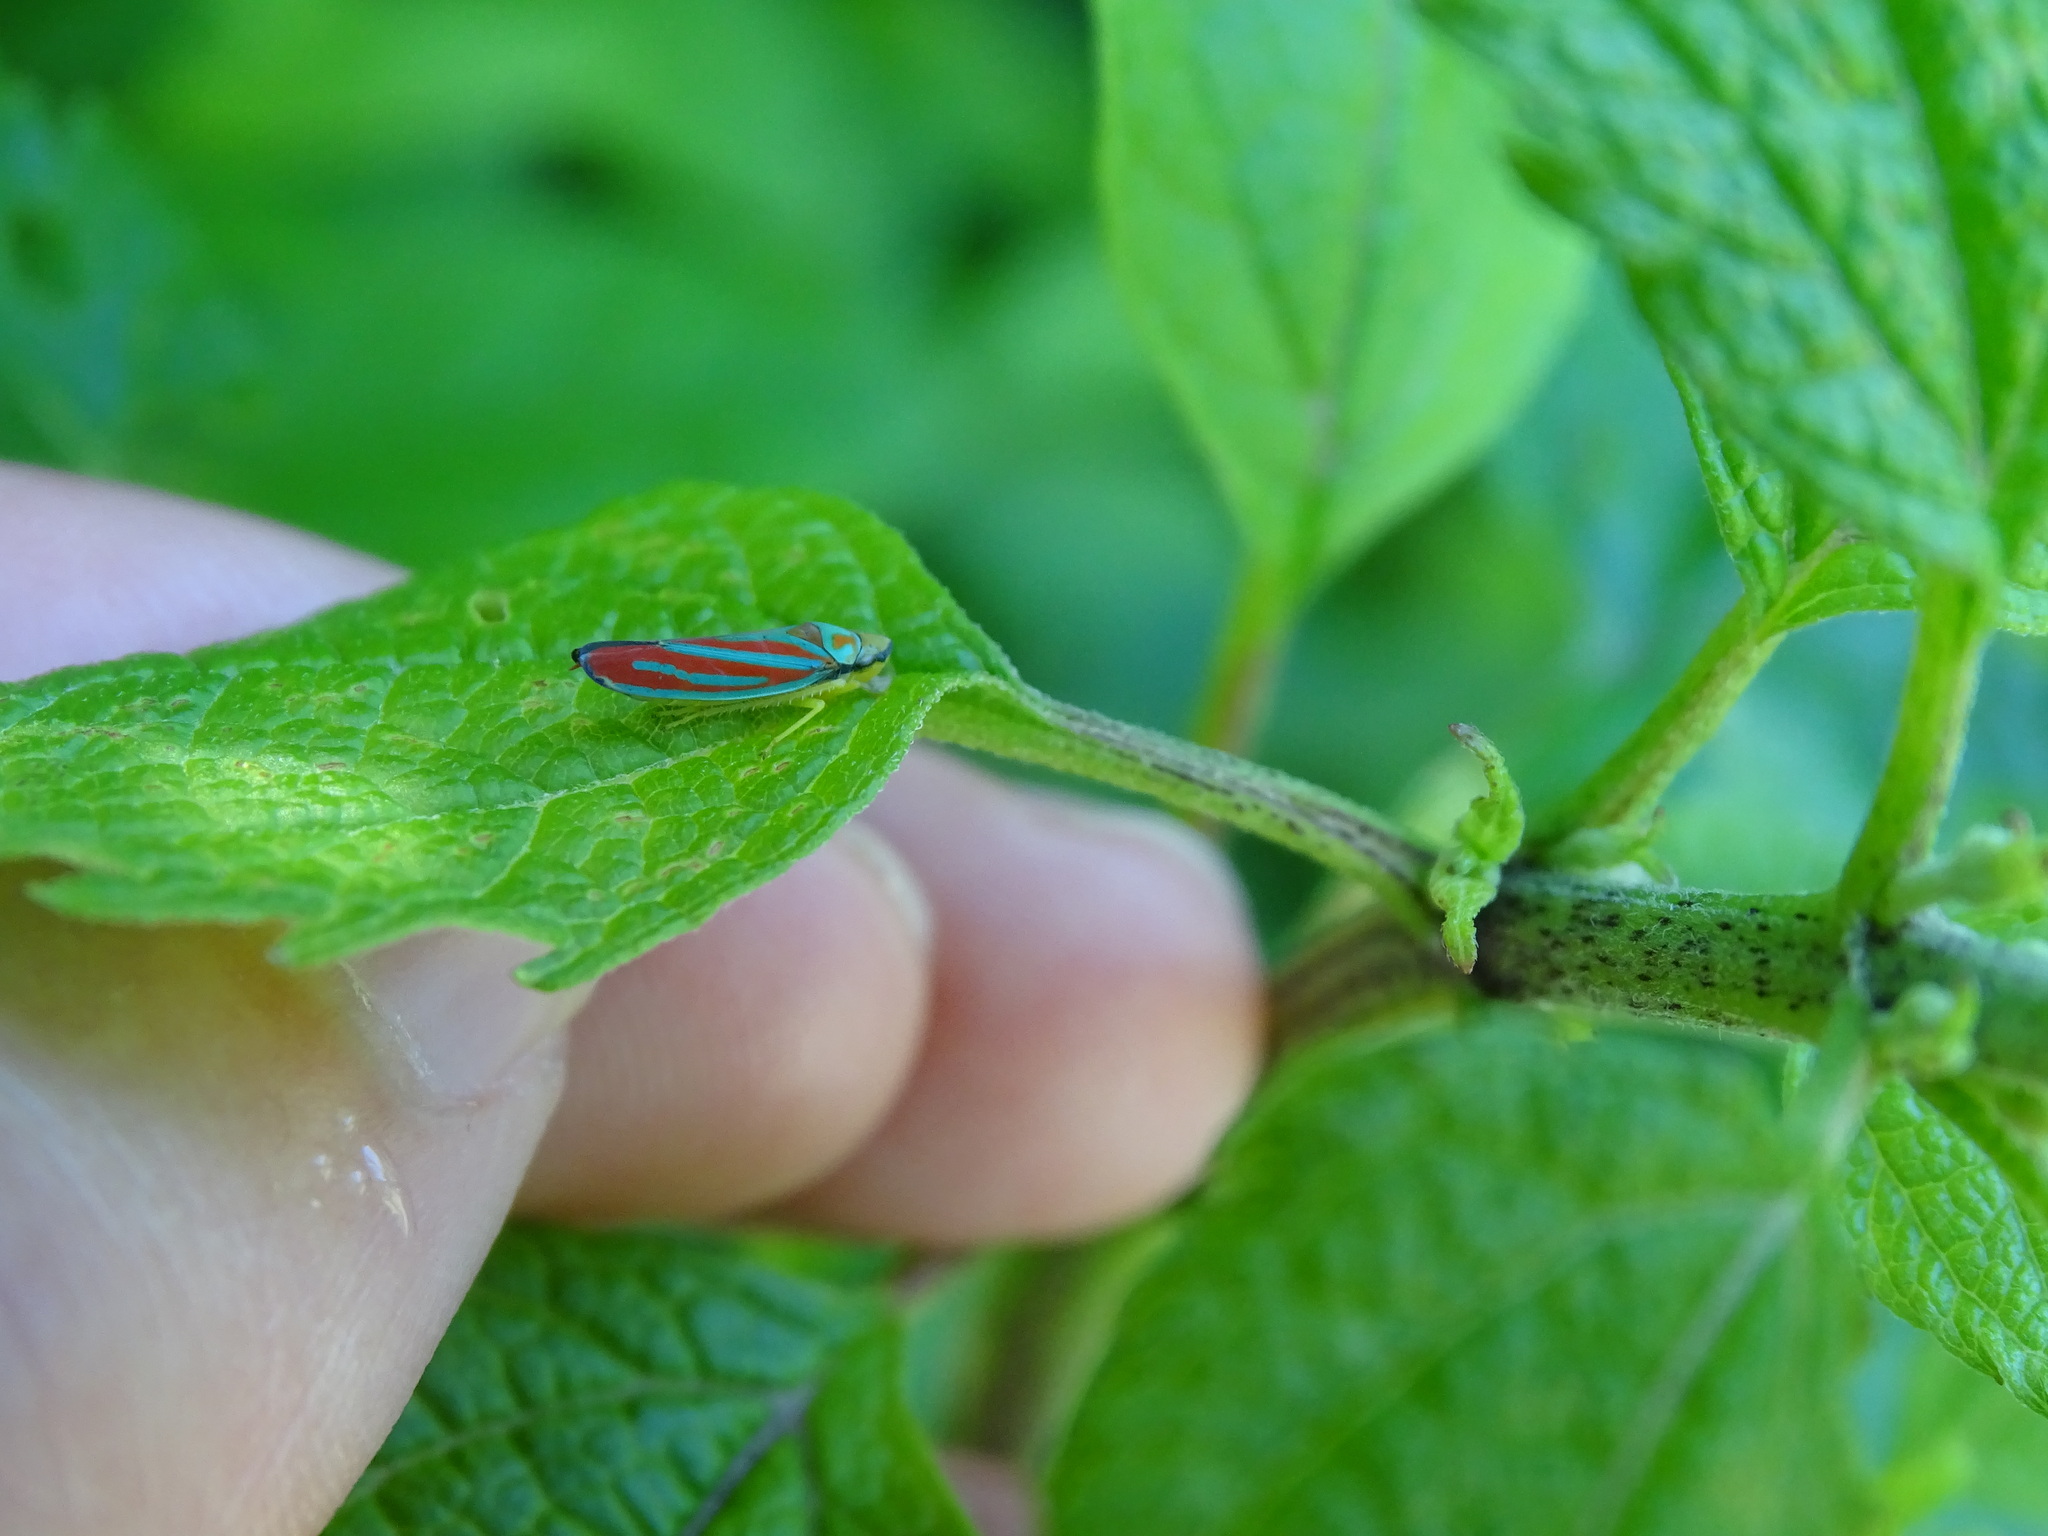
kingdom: Animalia
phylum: Arthropoda
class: Insecta
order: Hemiptera
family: Cicadellidae
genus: Graphocephala
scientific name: Graphocephala coccinea
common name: Candy-striped leafhopper
